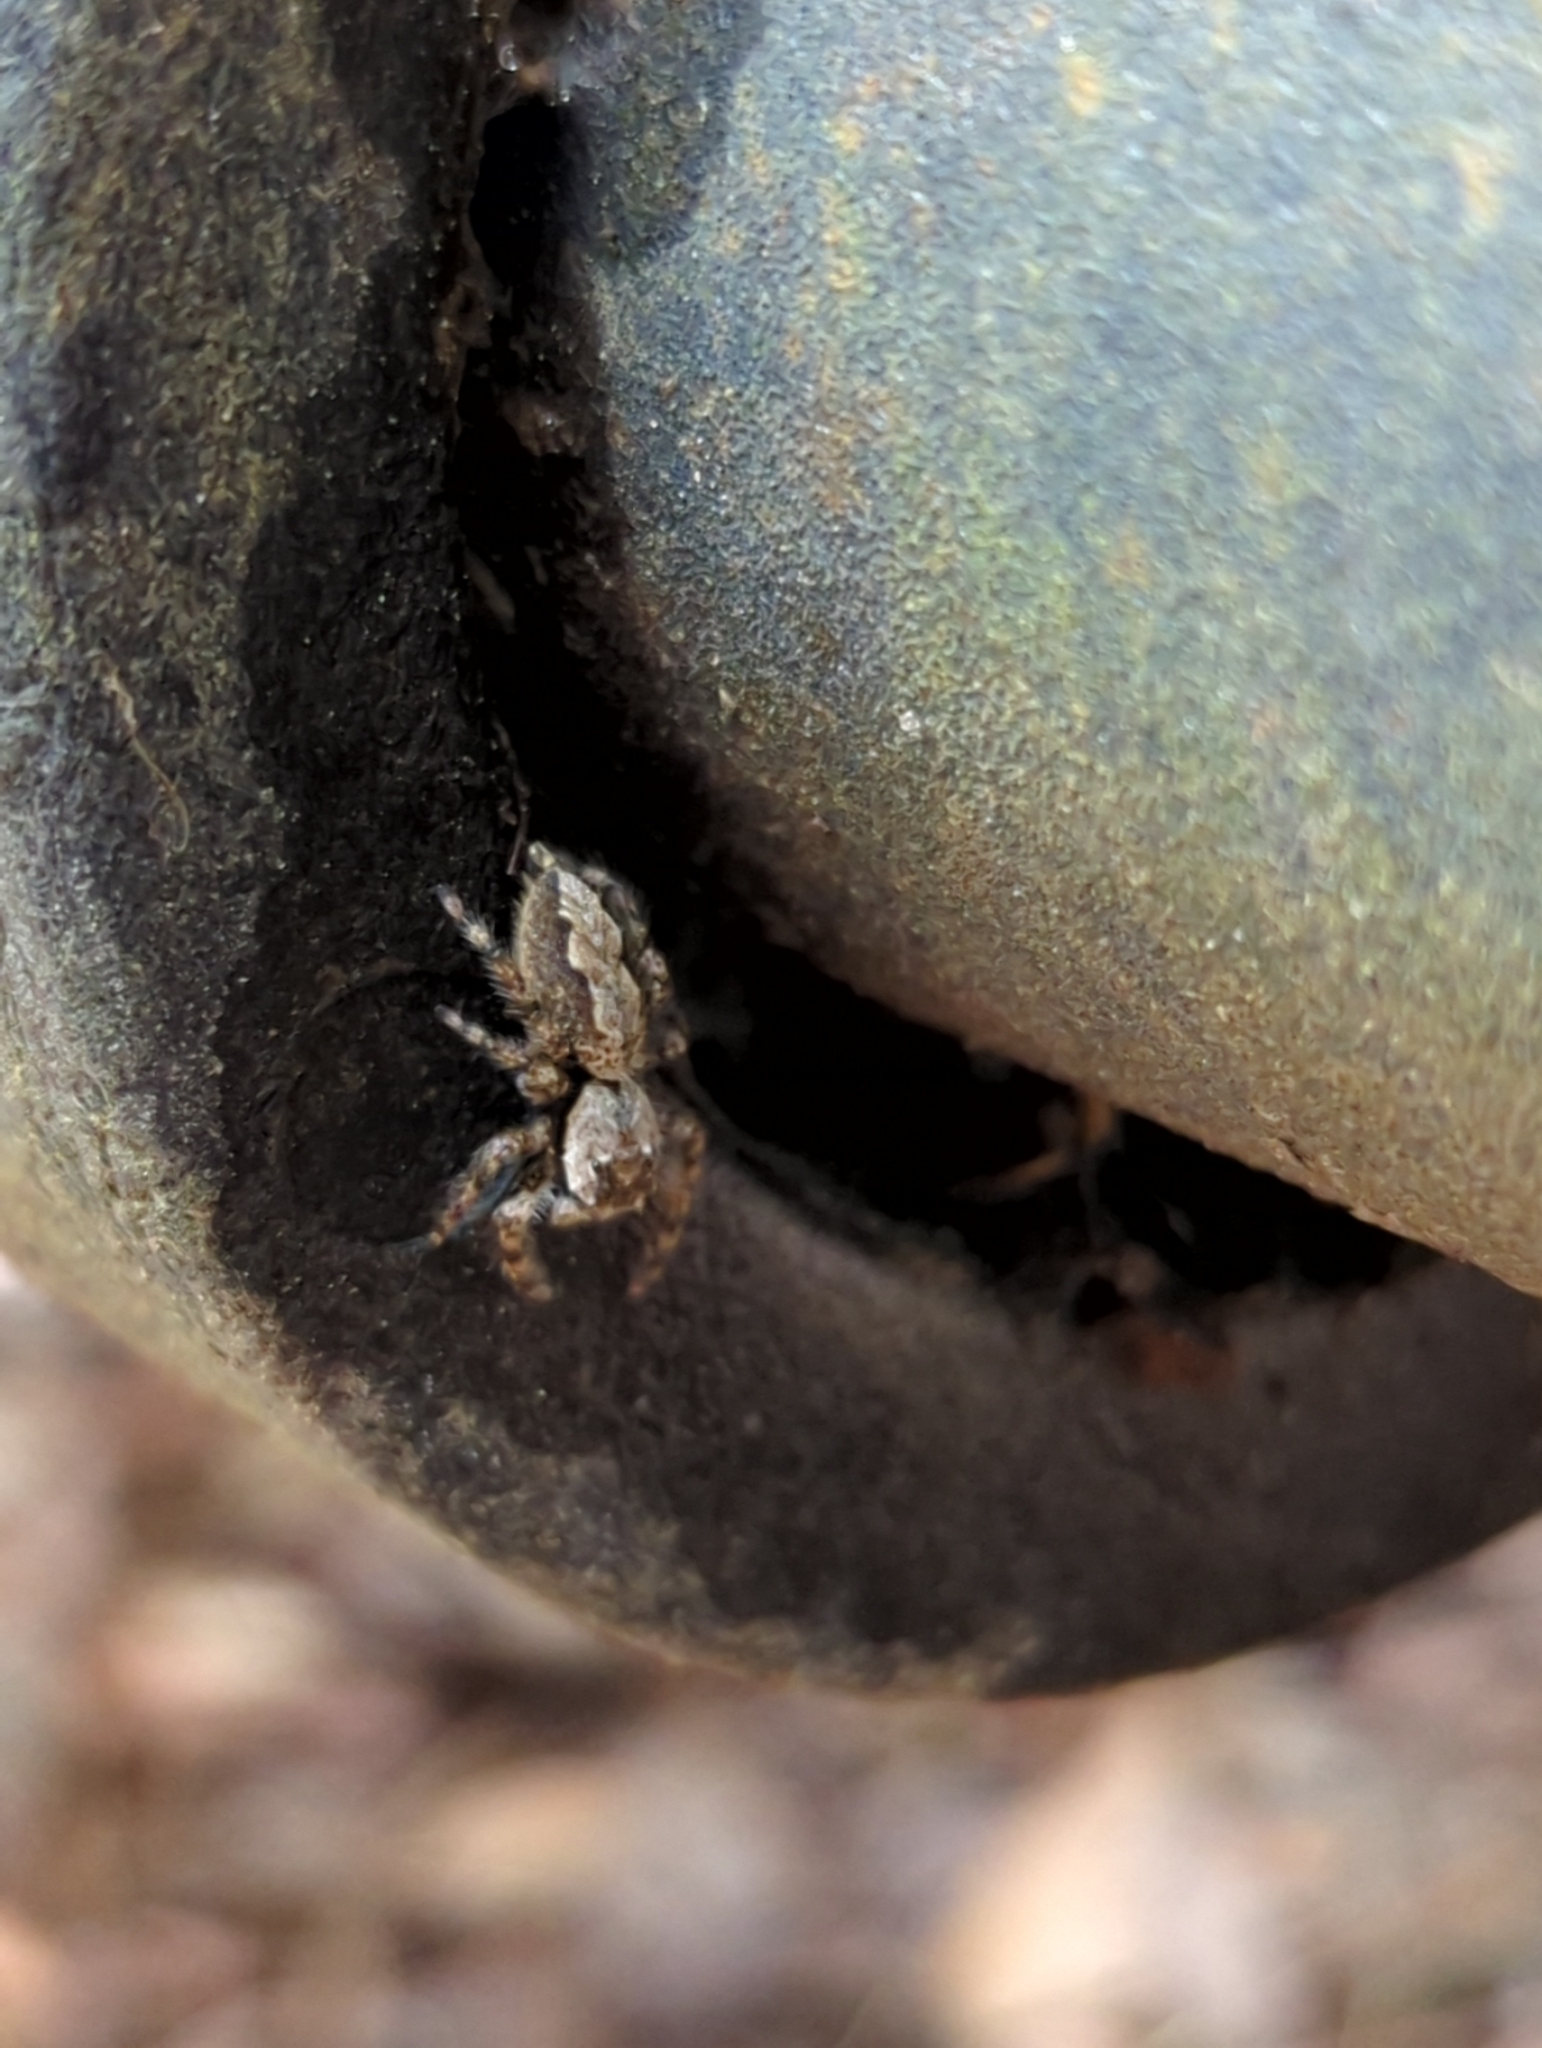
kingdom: Animalia
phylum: Arthropoda
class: Arachnida
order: Araneae
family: Salticidae
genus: Platycryptus
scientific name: Platycryptus undatus
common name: Tan jumping spider
